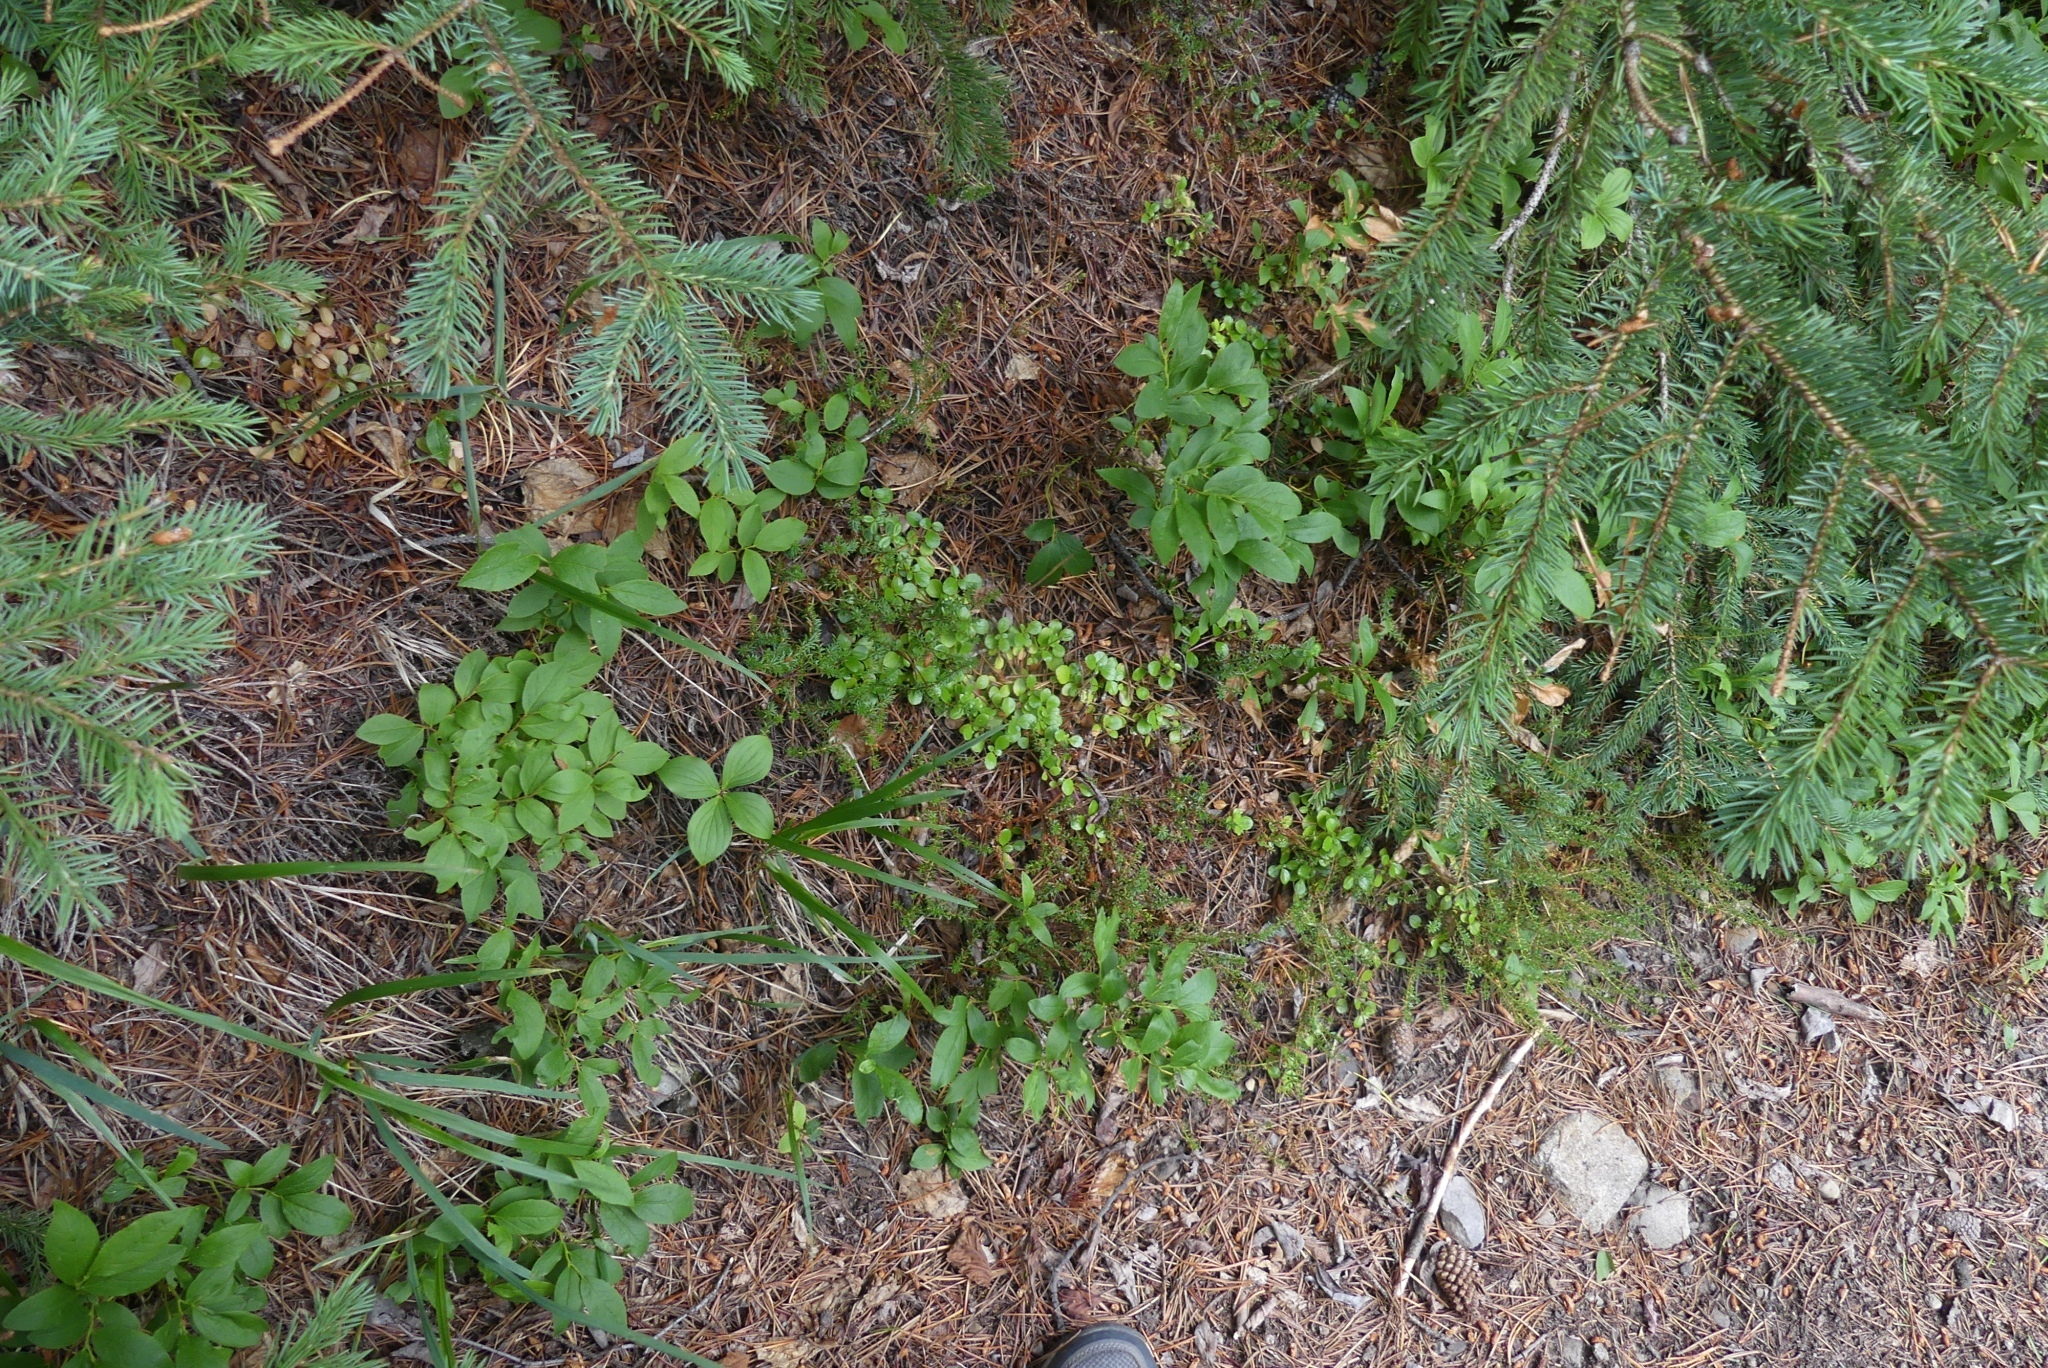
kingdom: Plantae
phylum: Tracheophyta
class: Magnoliopsida
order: Dipsacales
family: Caprifoliaceae
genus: Linnaea
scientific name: Linnaea borealis
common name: Twinflower
